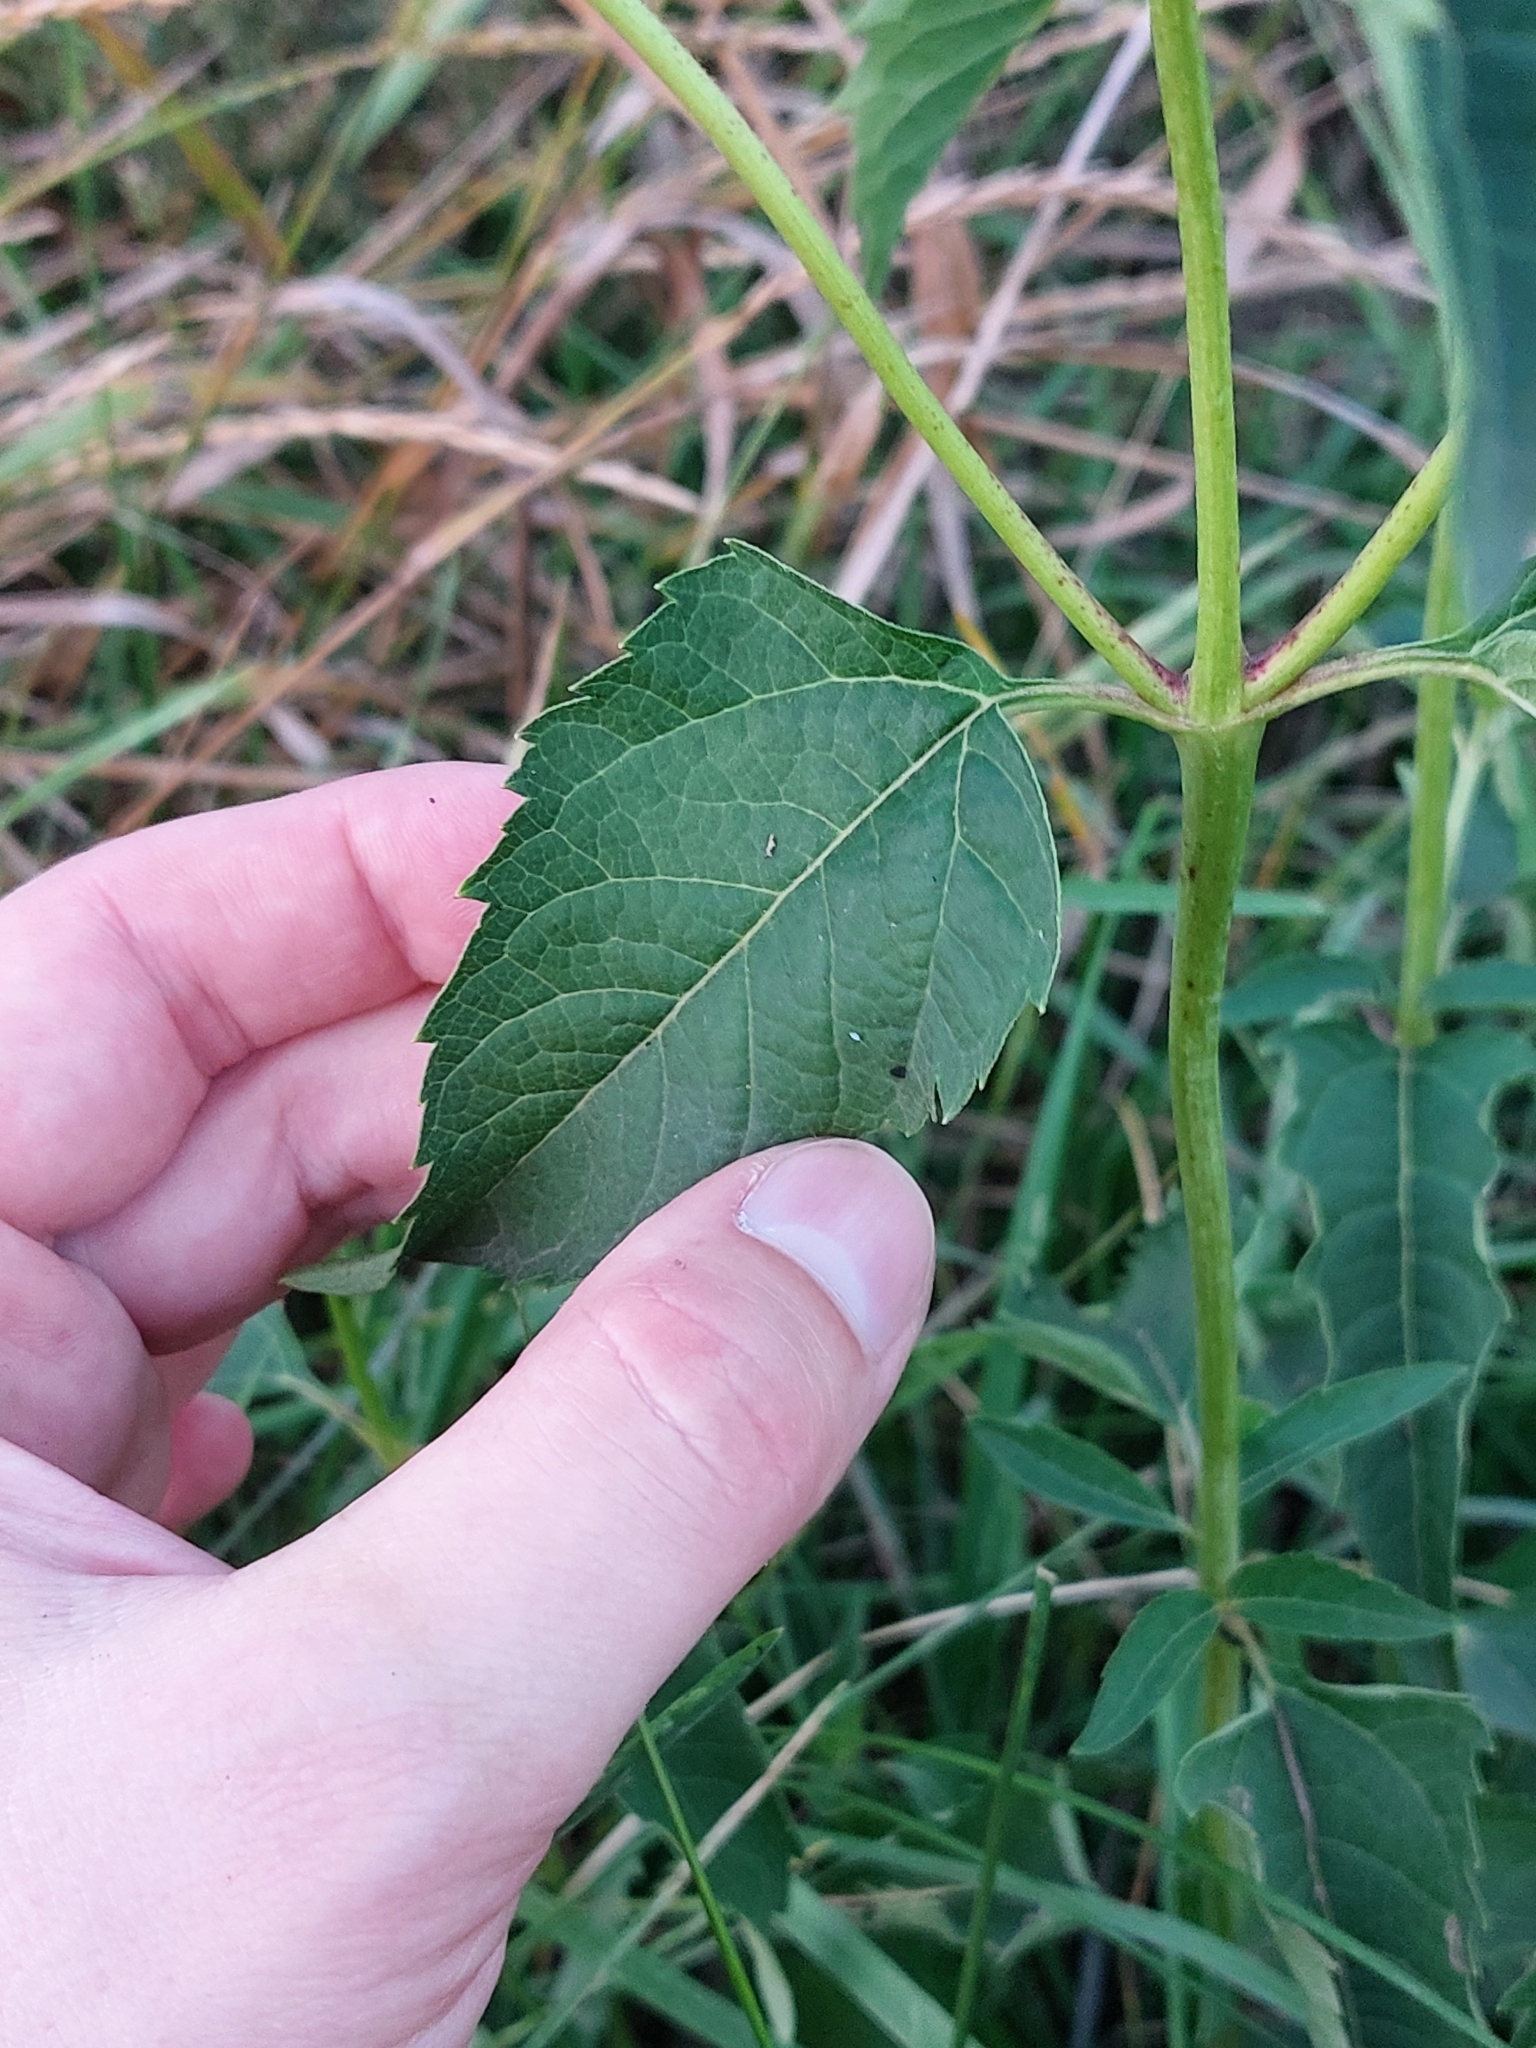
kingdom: Plantae
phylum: Tracheophyta
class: Magnoliopsida
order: Asterales
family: Asteraceae
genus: Heliopsis
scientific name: Heliopsis helianthoides
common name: False sunflower
